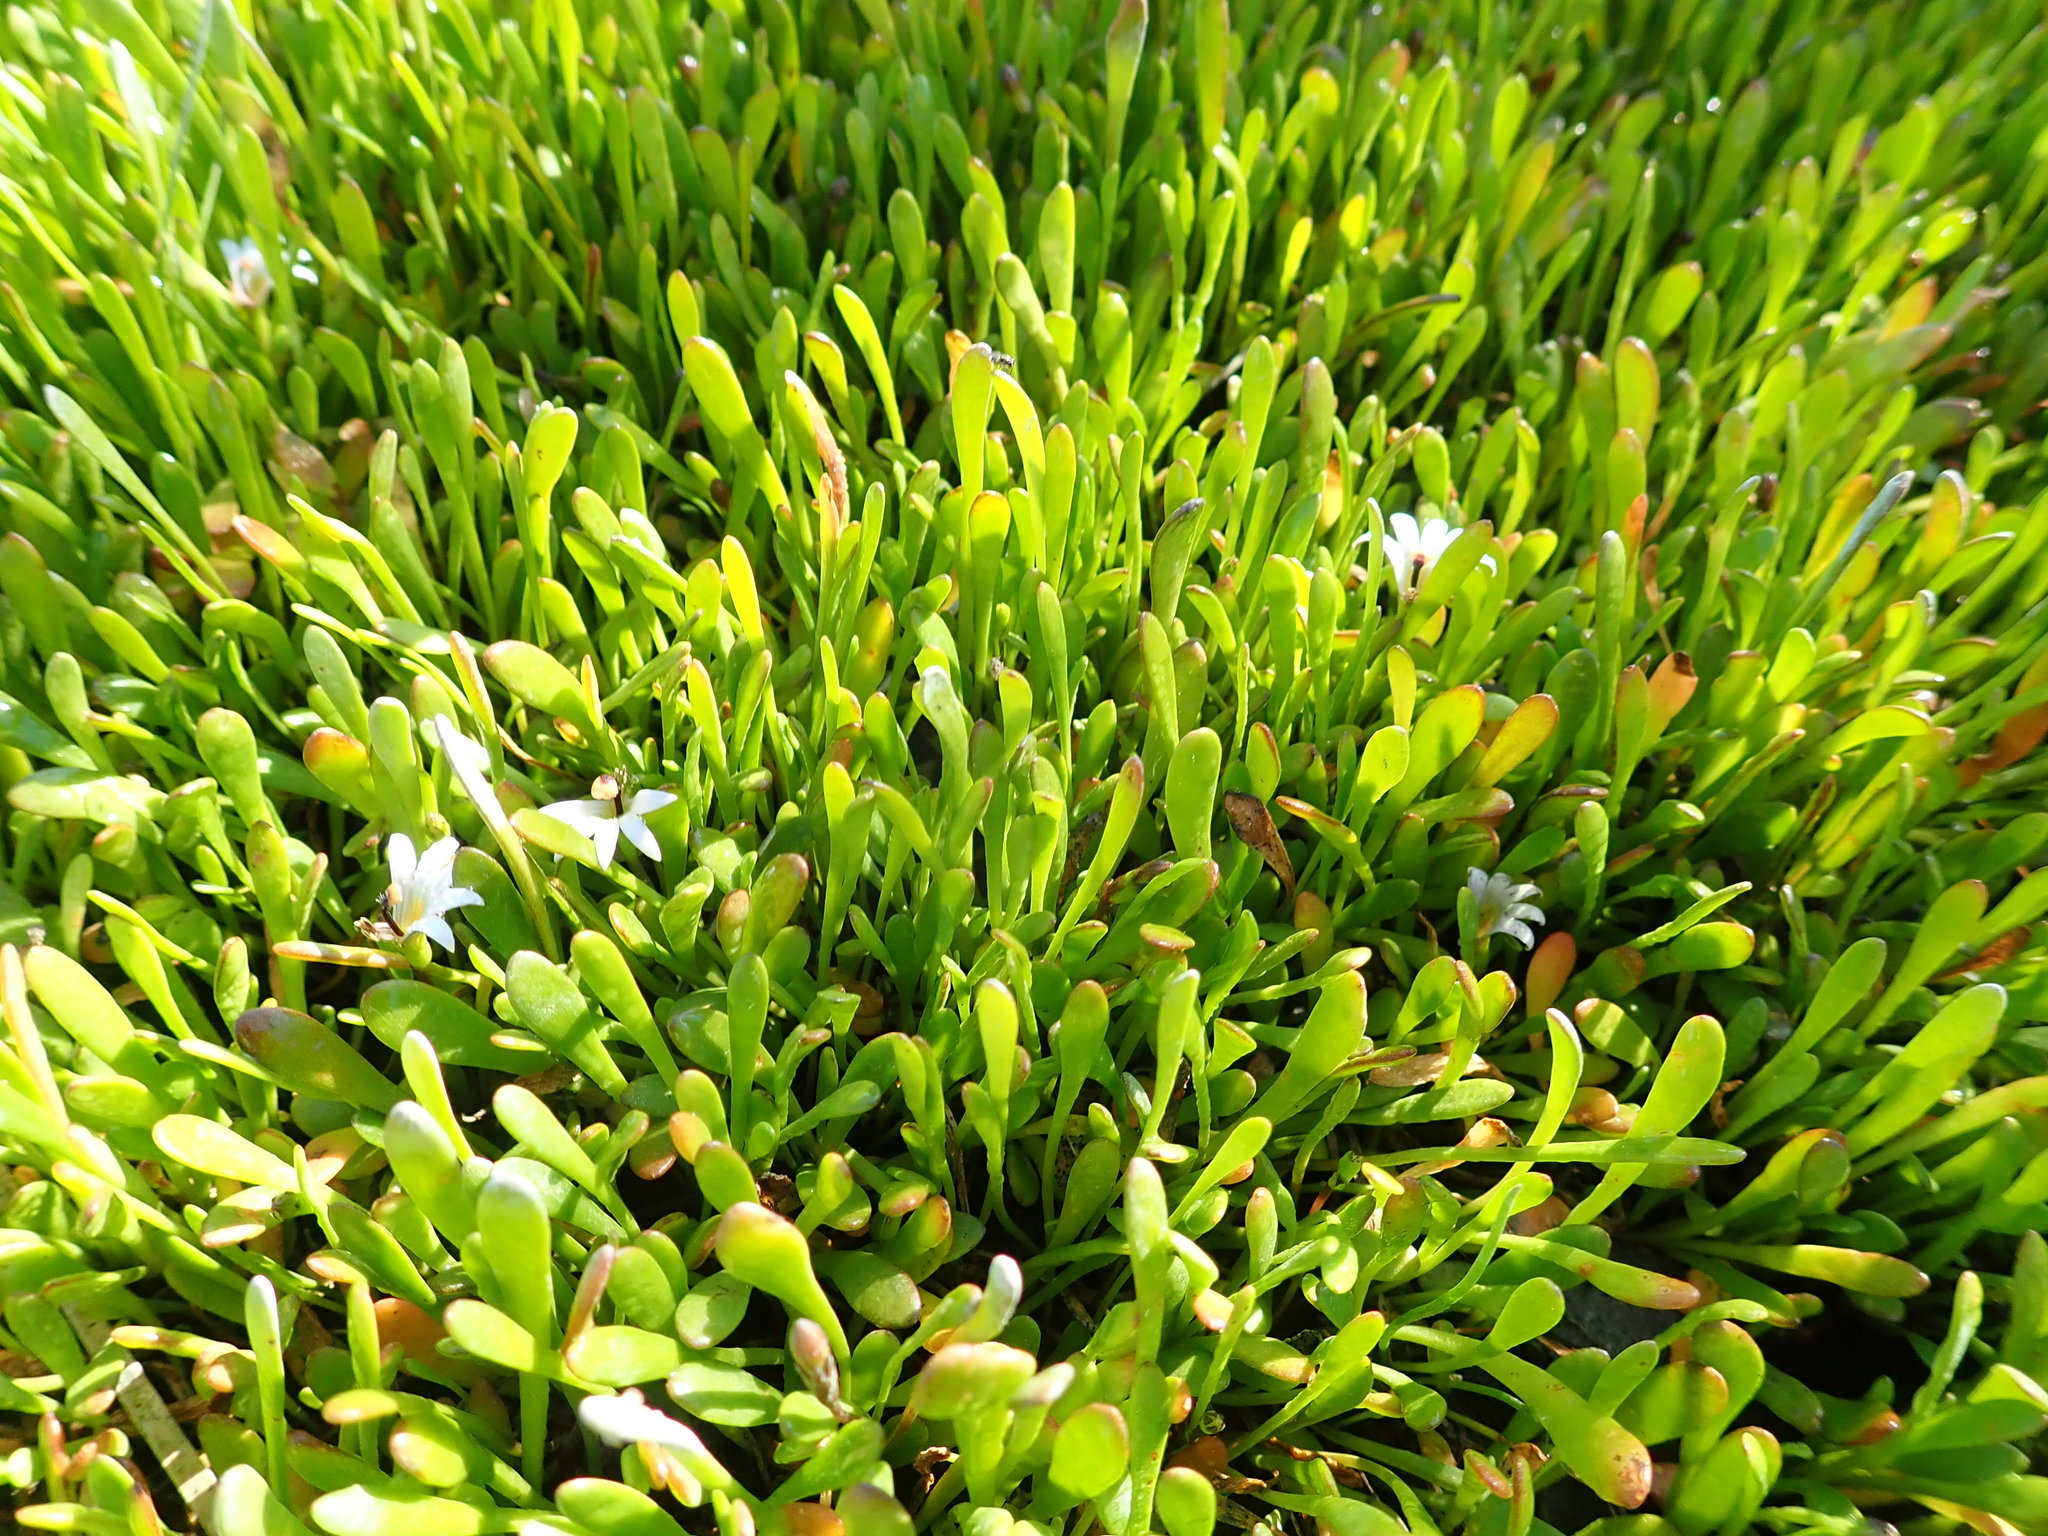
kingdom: Plantae
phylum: Tracheophyta
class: Magnoliopsida
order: Asterales
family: Goodeniaceae
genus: Goodenia
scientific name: Goodenia radicans
